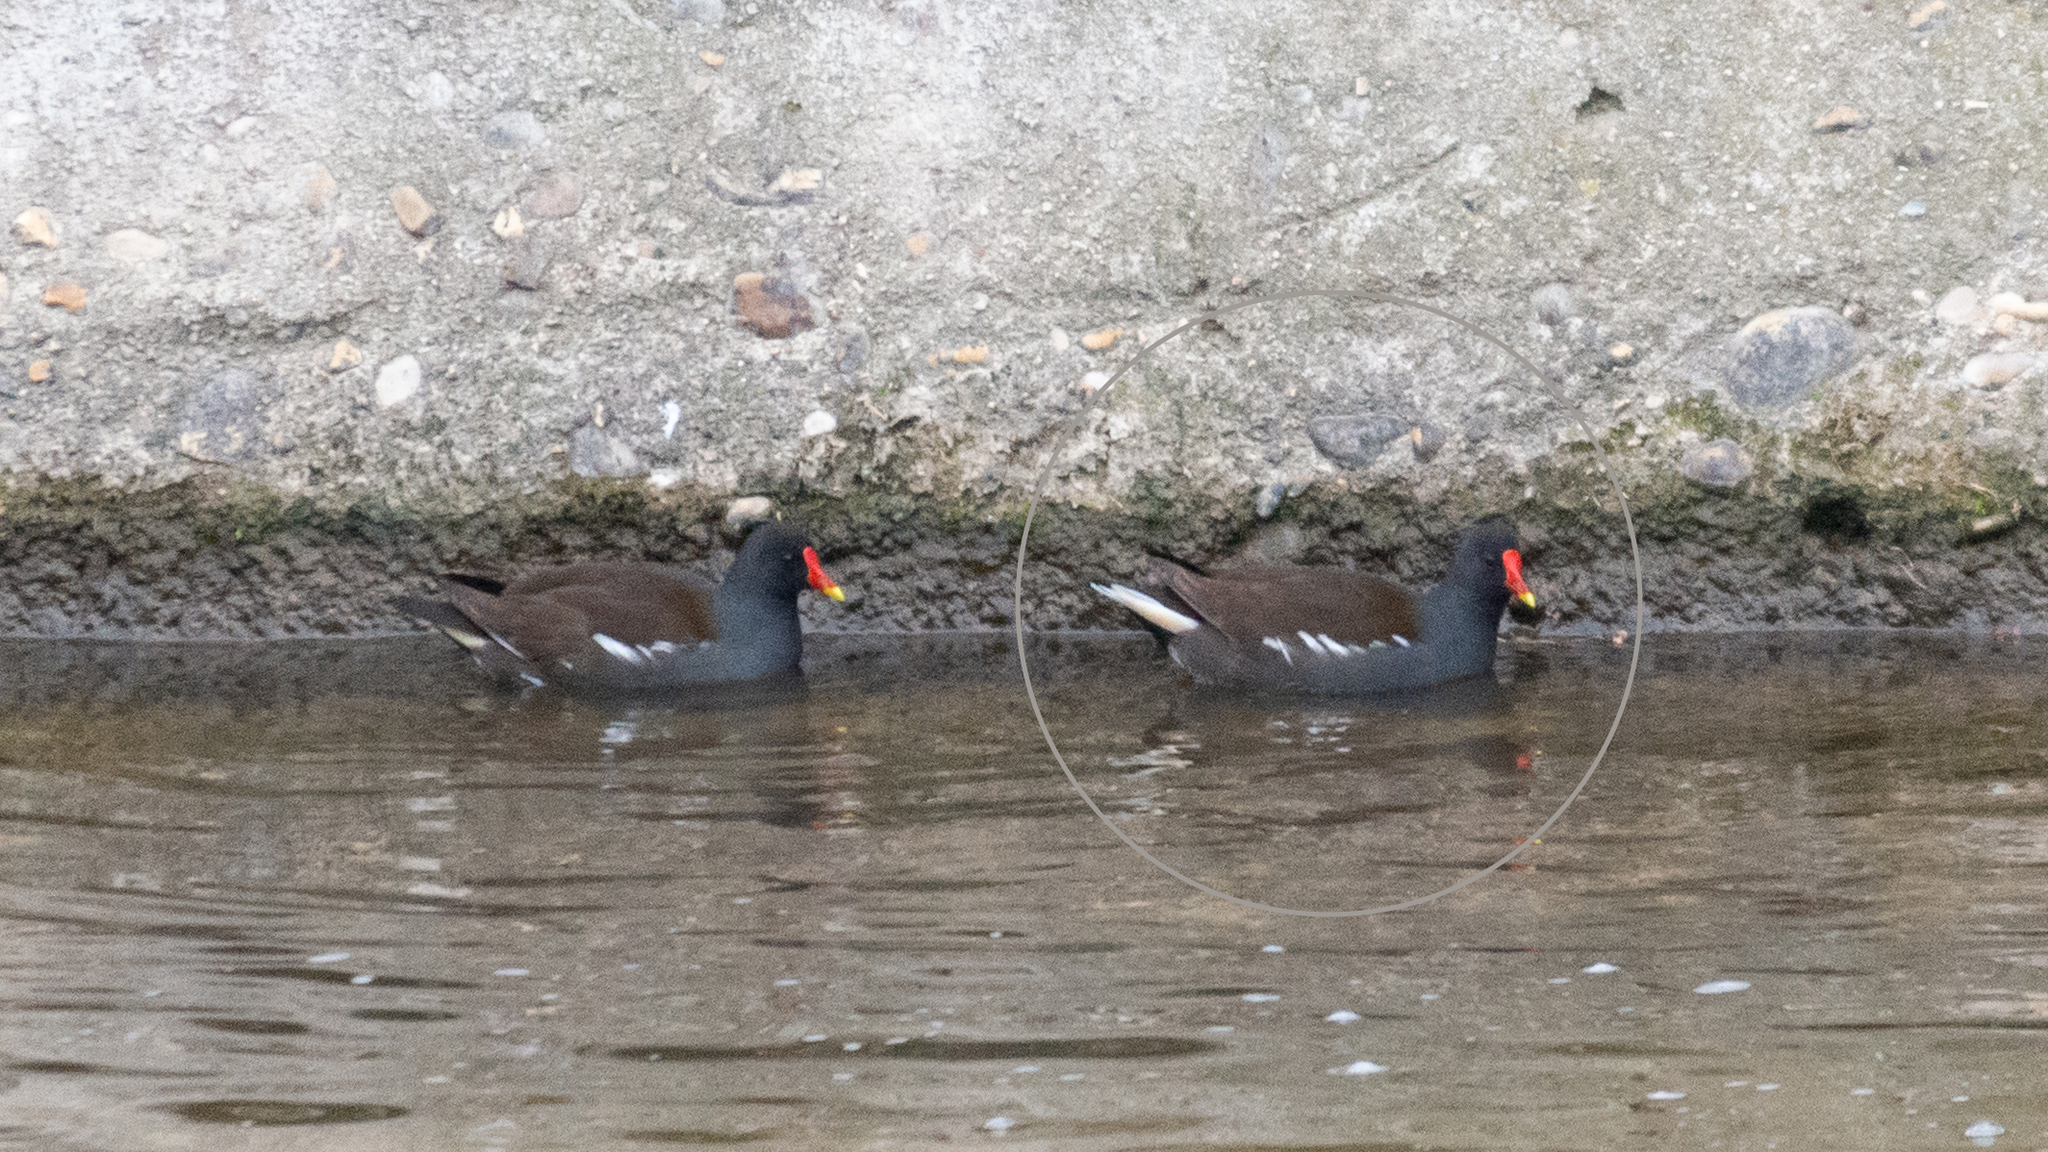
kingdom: Animalia
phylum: Chordata
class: Aves
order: Gruiformes
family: Rallidae
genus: Gallinula
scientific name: Gallinula chloropus
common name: Common moorhen
